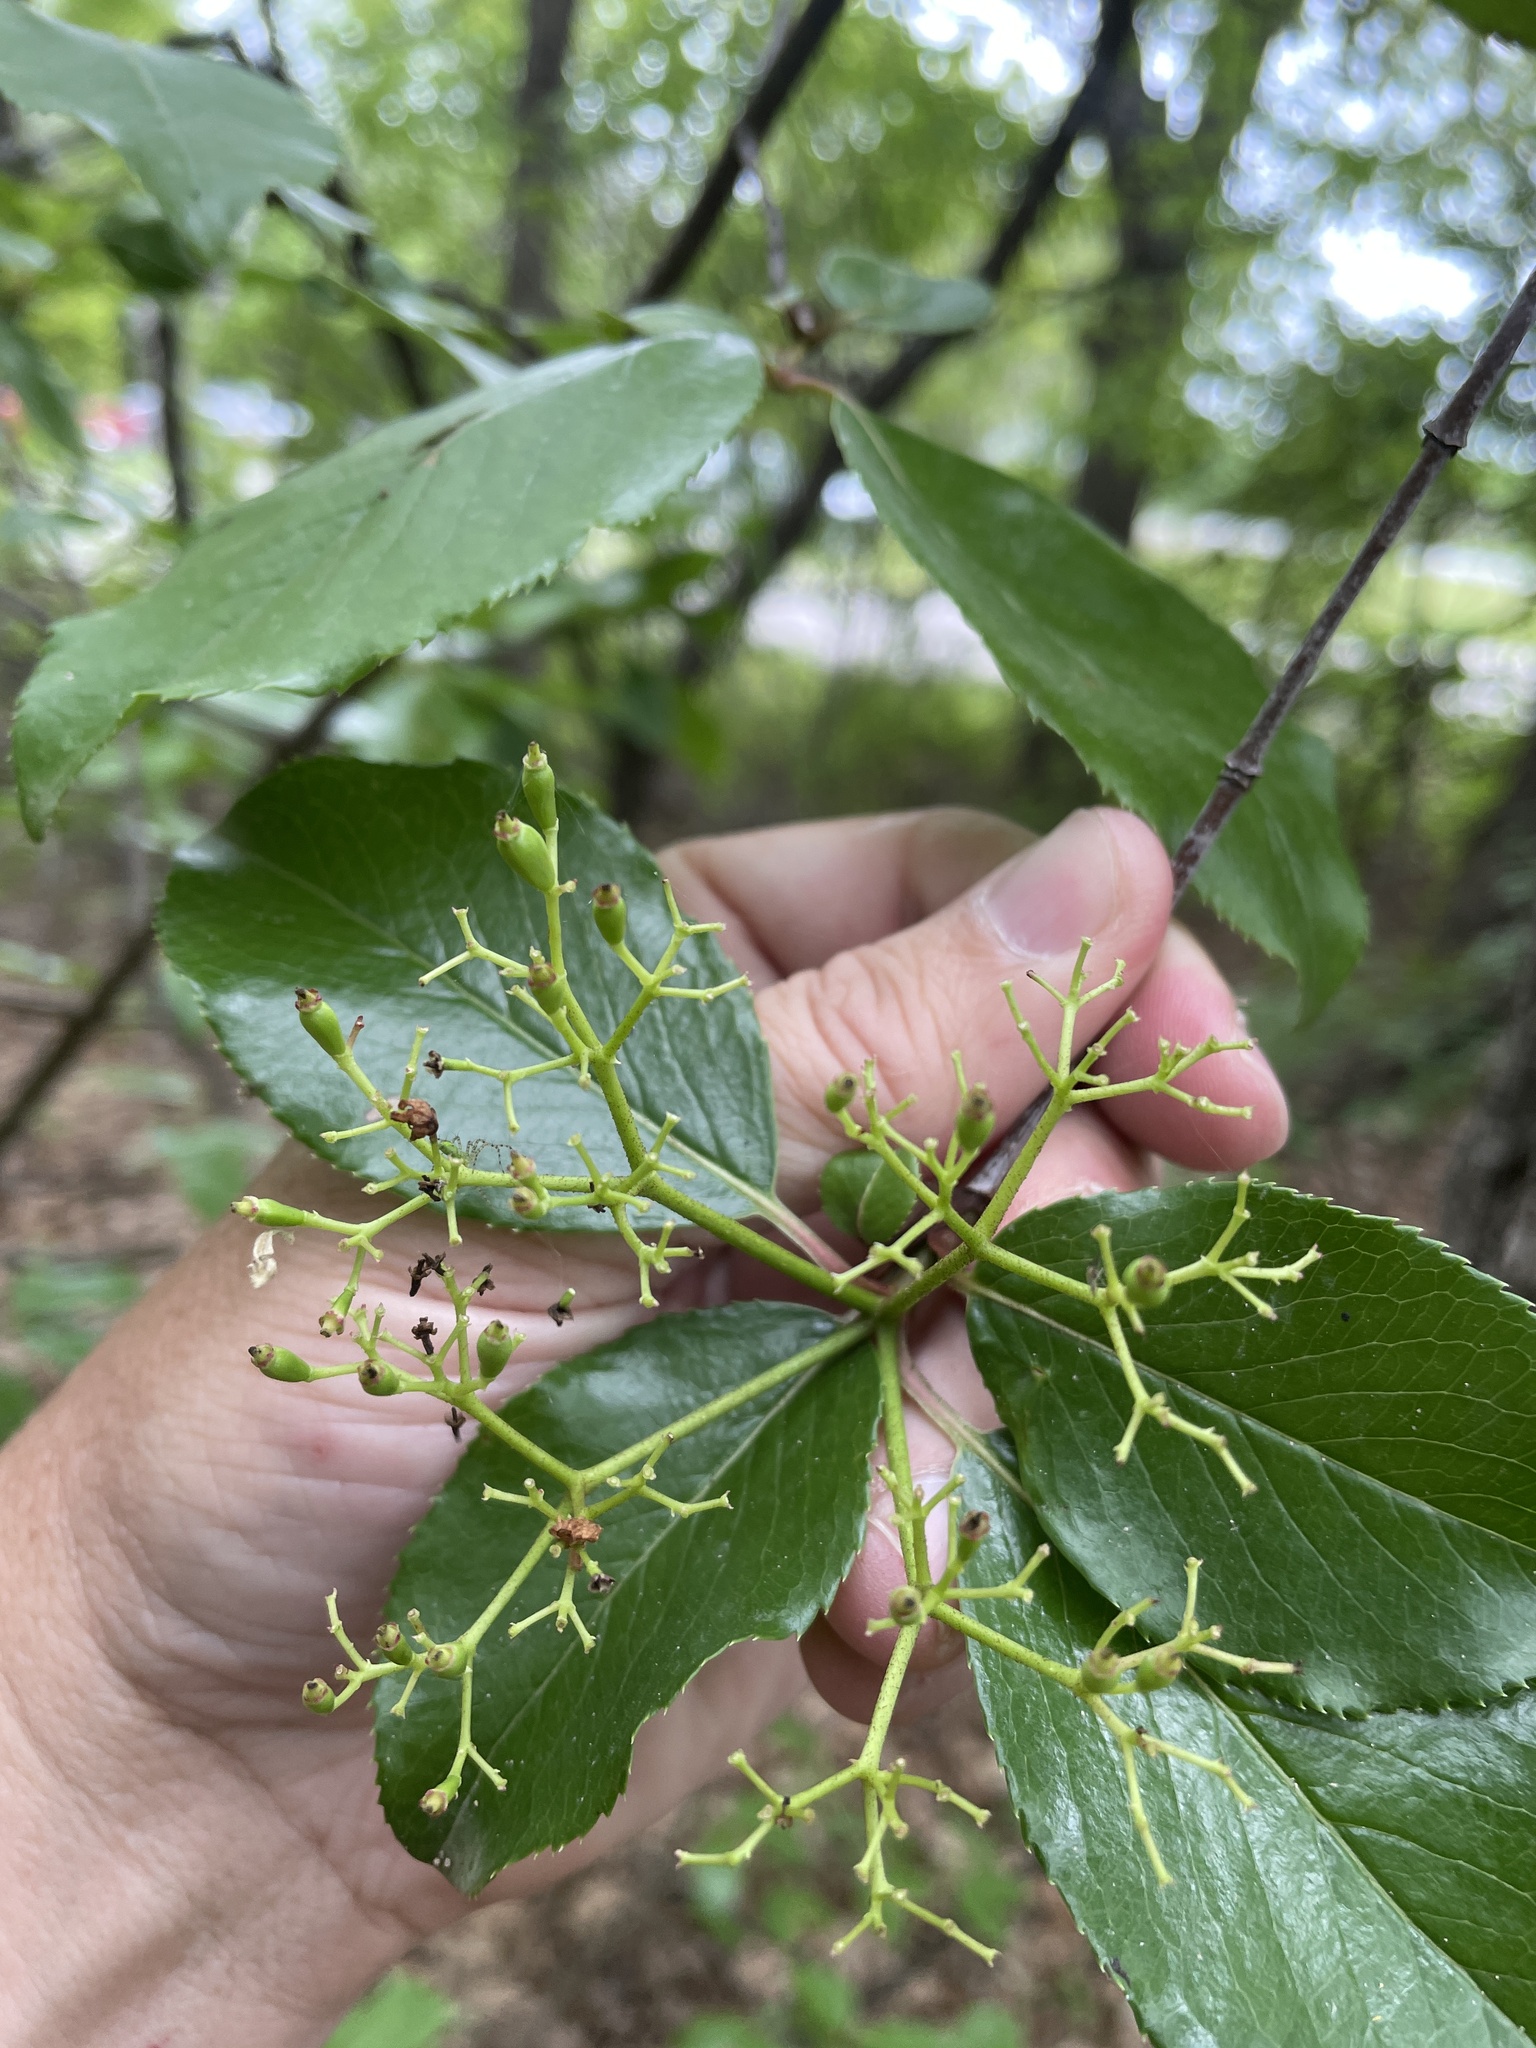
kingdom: Plantae
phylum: Tracheophyta
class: Magnoliopsida
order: Dipsacales
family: Viburnaceae
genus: Viburnum
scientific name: Viburnum rufidulum
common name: Blue haw
